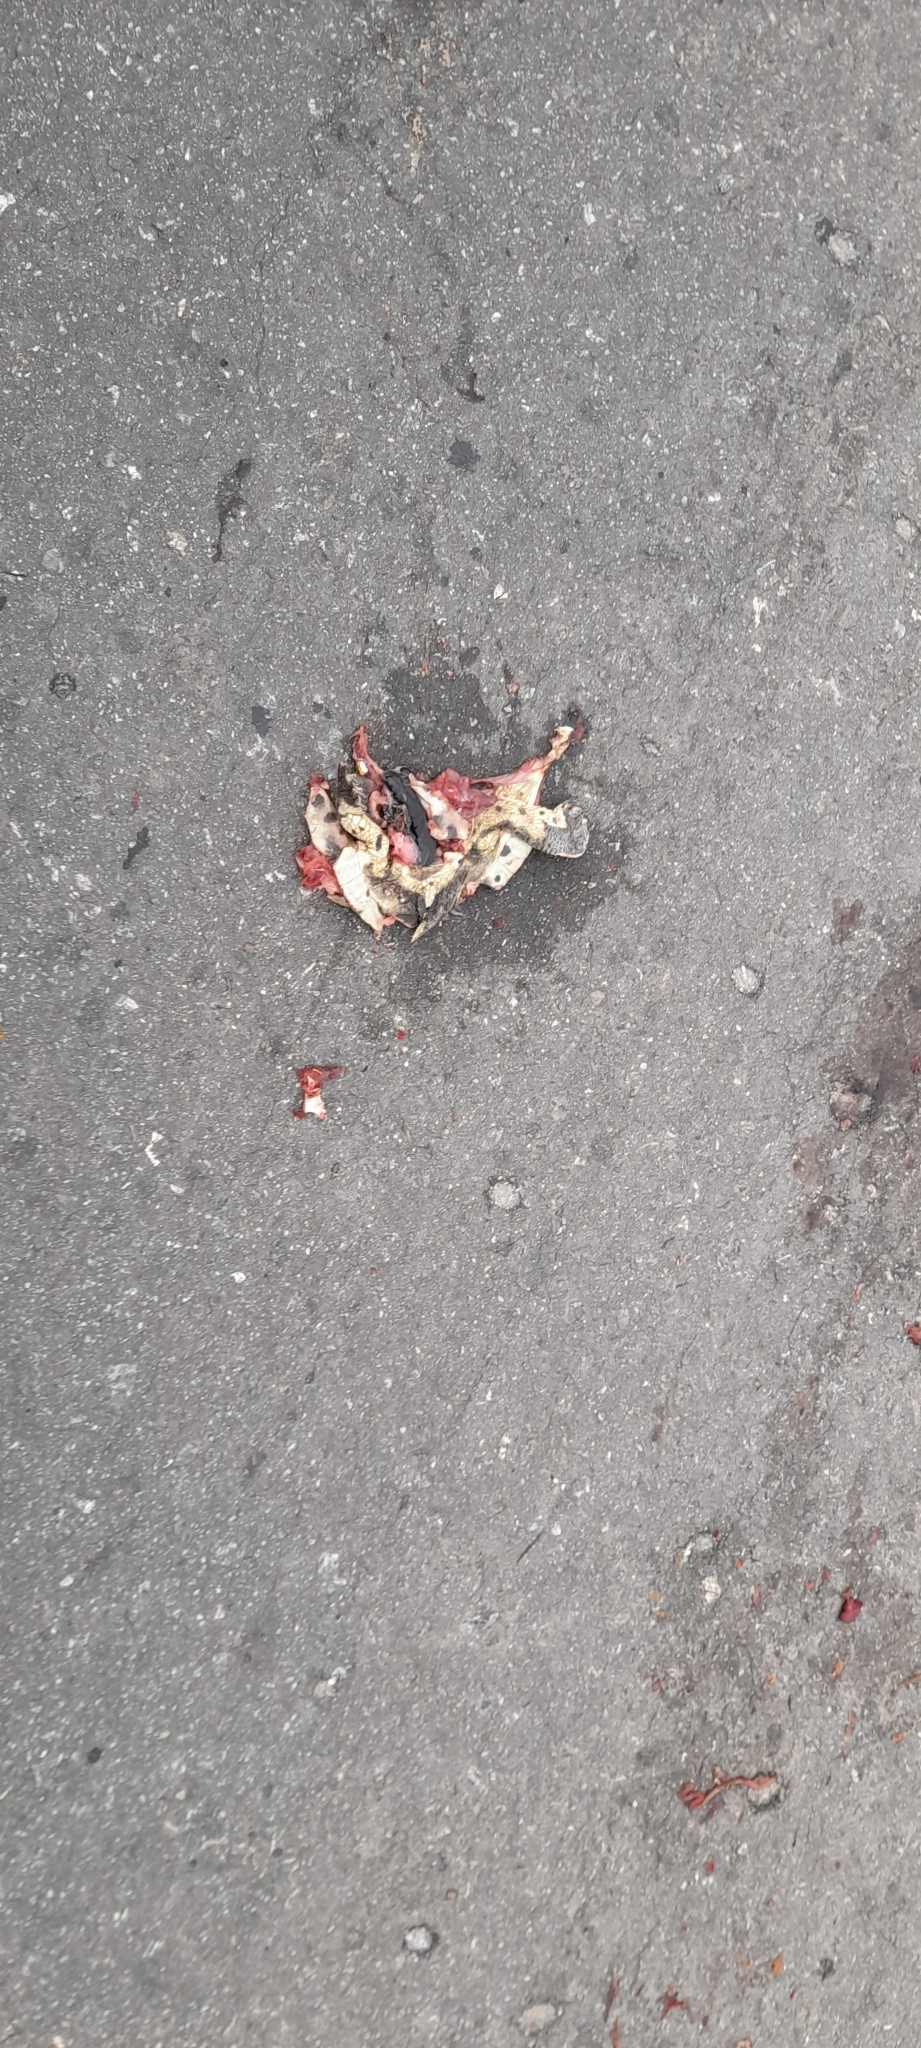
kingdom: Animalia
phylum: Chordata
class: Testudines
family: Chelidae
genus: Phrynops
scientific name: Phrynops hilarii
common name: Side-necked turtle of saint hillaire
